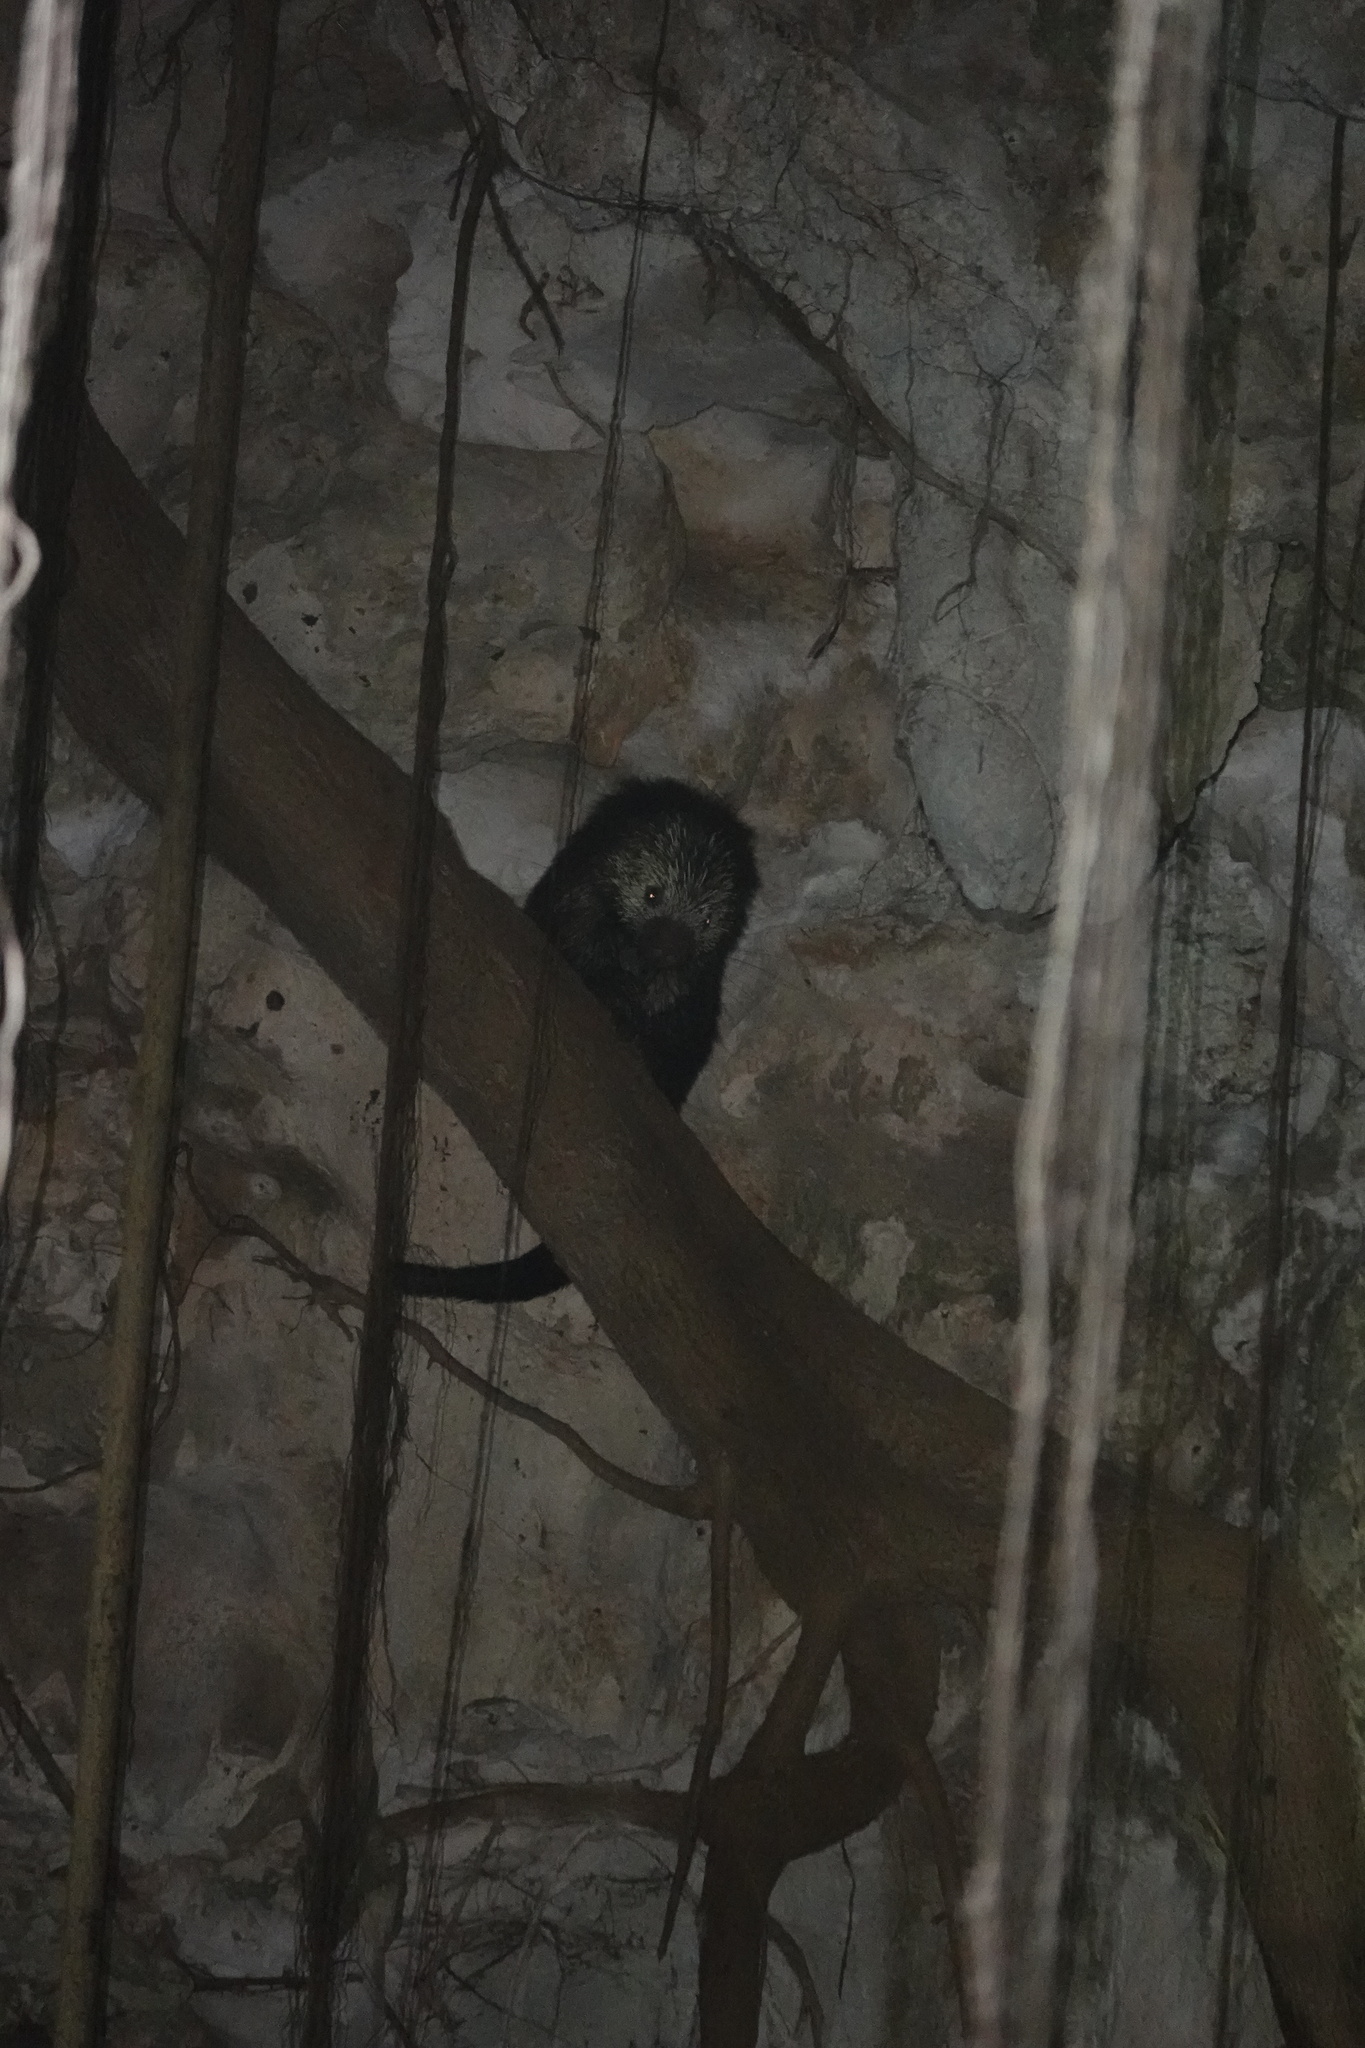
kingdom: Animalia
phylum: Chordata
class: Mammalia
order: Rodentia
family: Erethizontidae
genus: Sphiggurus
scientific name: Sphiggurus mexicanus
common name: Mexican hairy dwarf porcupine
